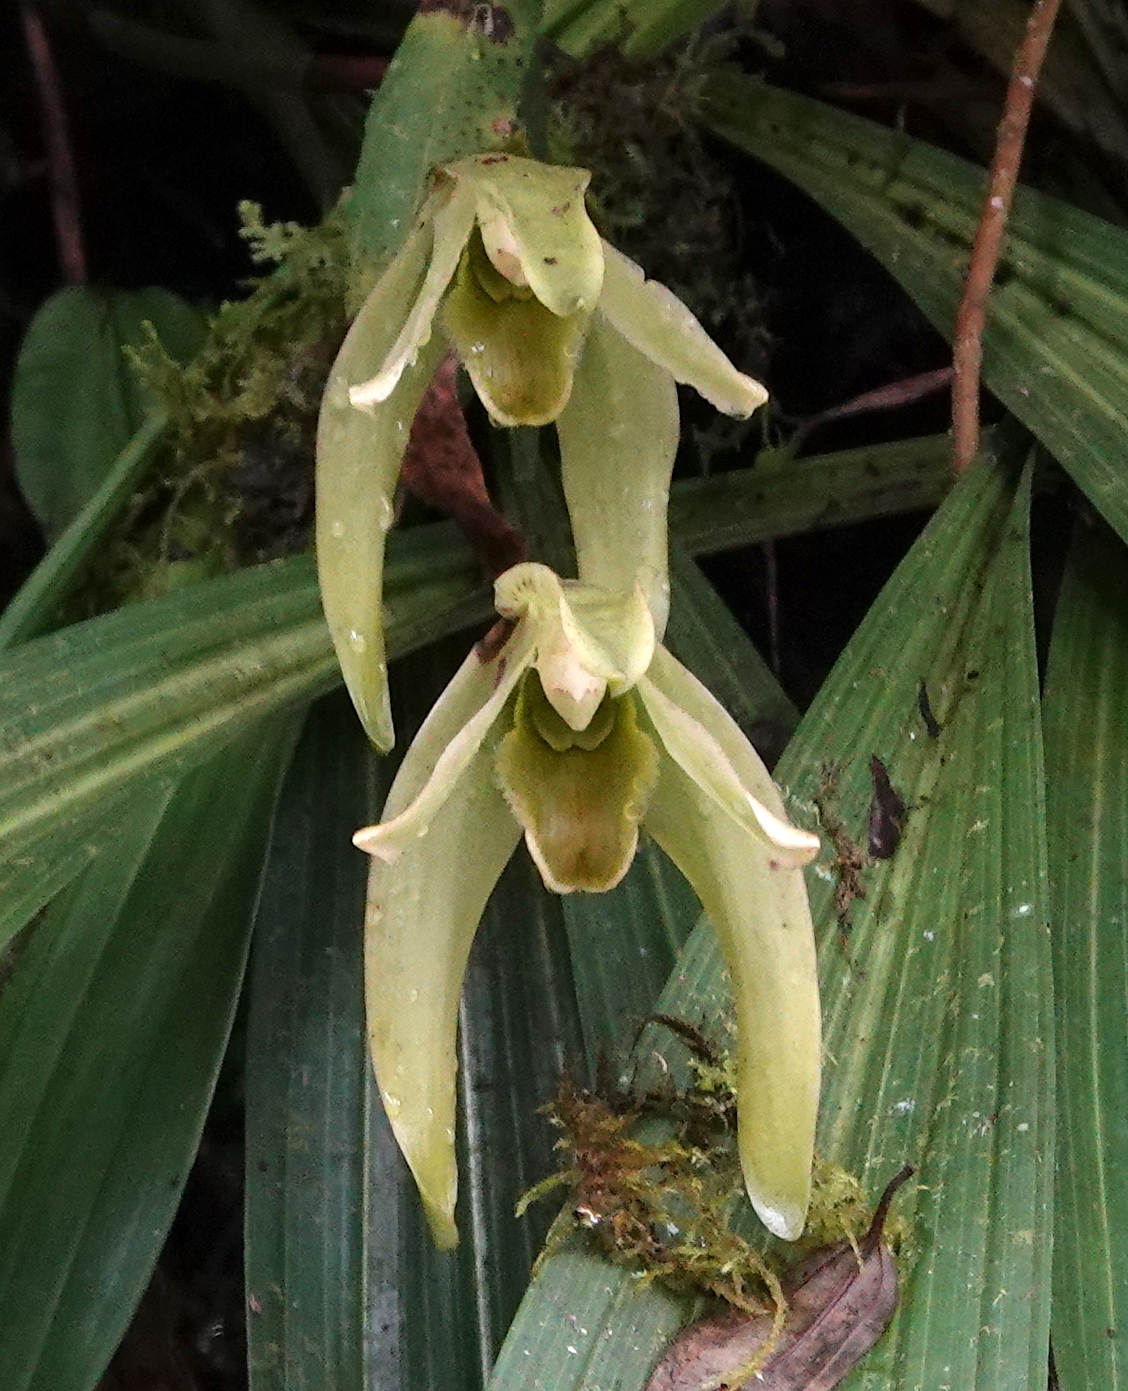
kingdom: Plantae
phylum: Tracheophyta
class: Liliopsida
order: Asparagales
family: Orchidaceae
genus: Ida
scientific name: Ida gigantea
